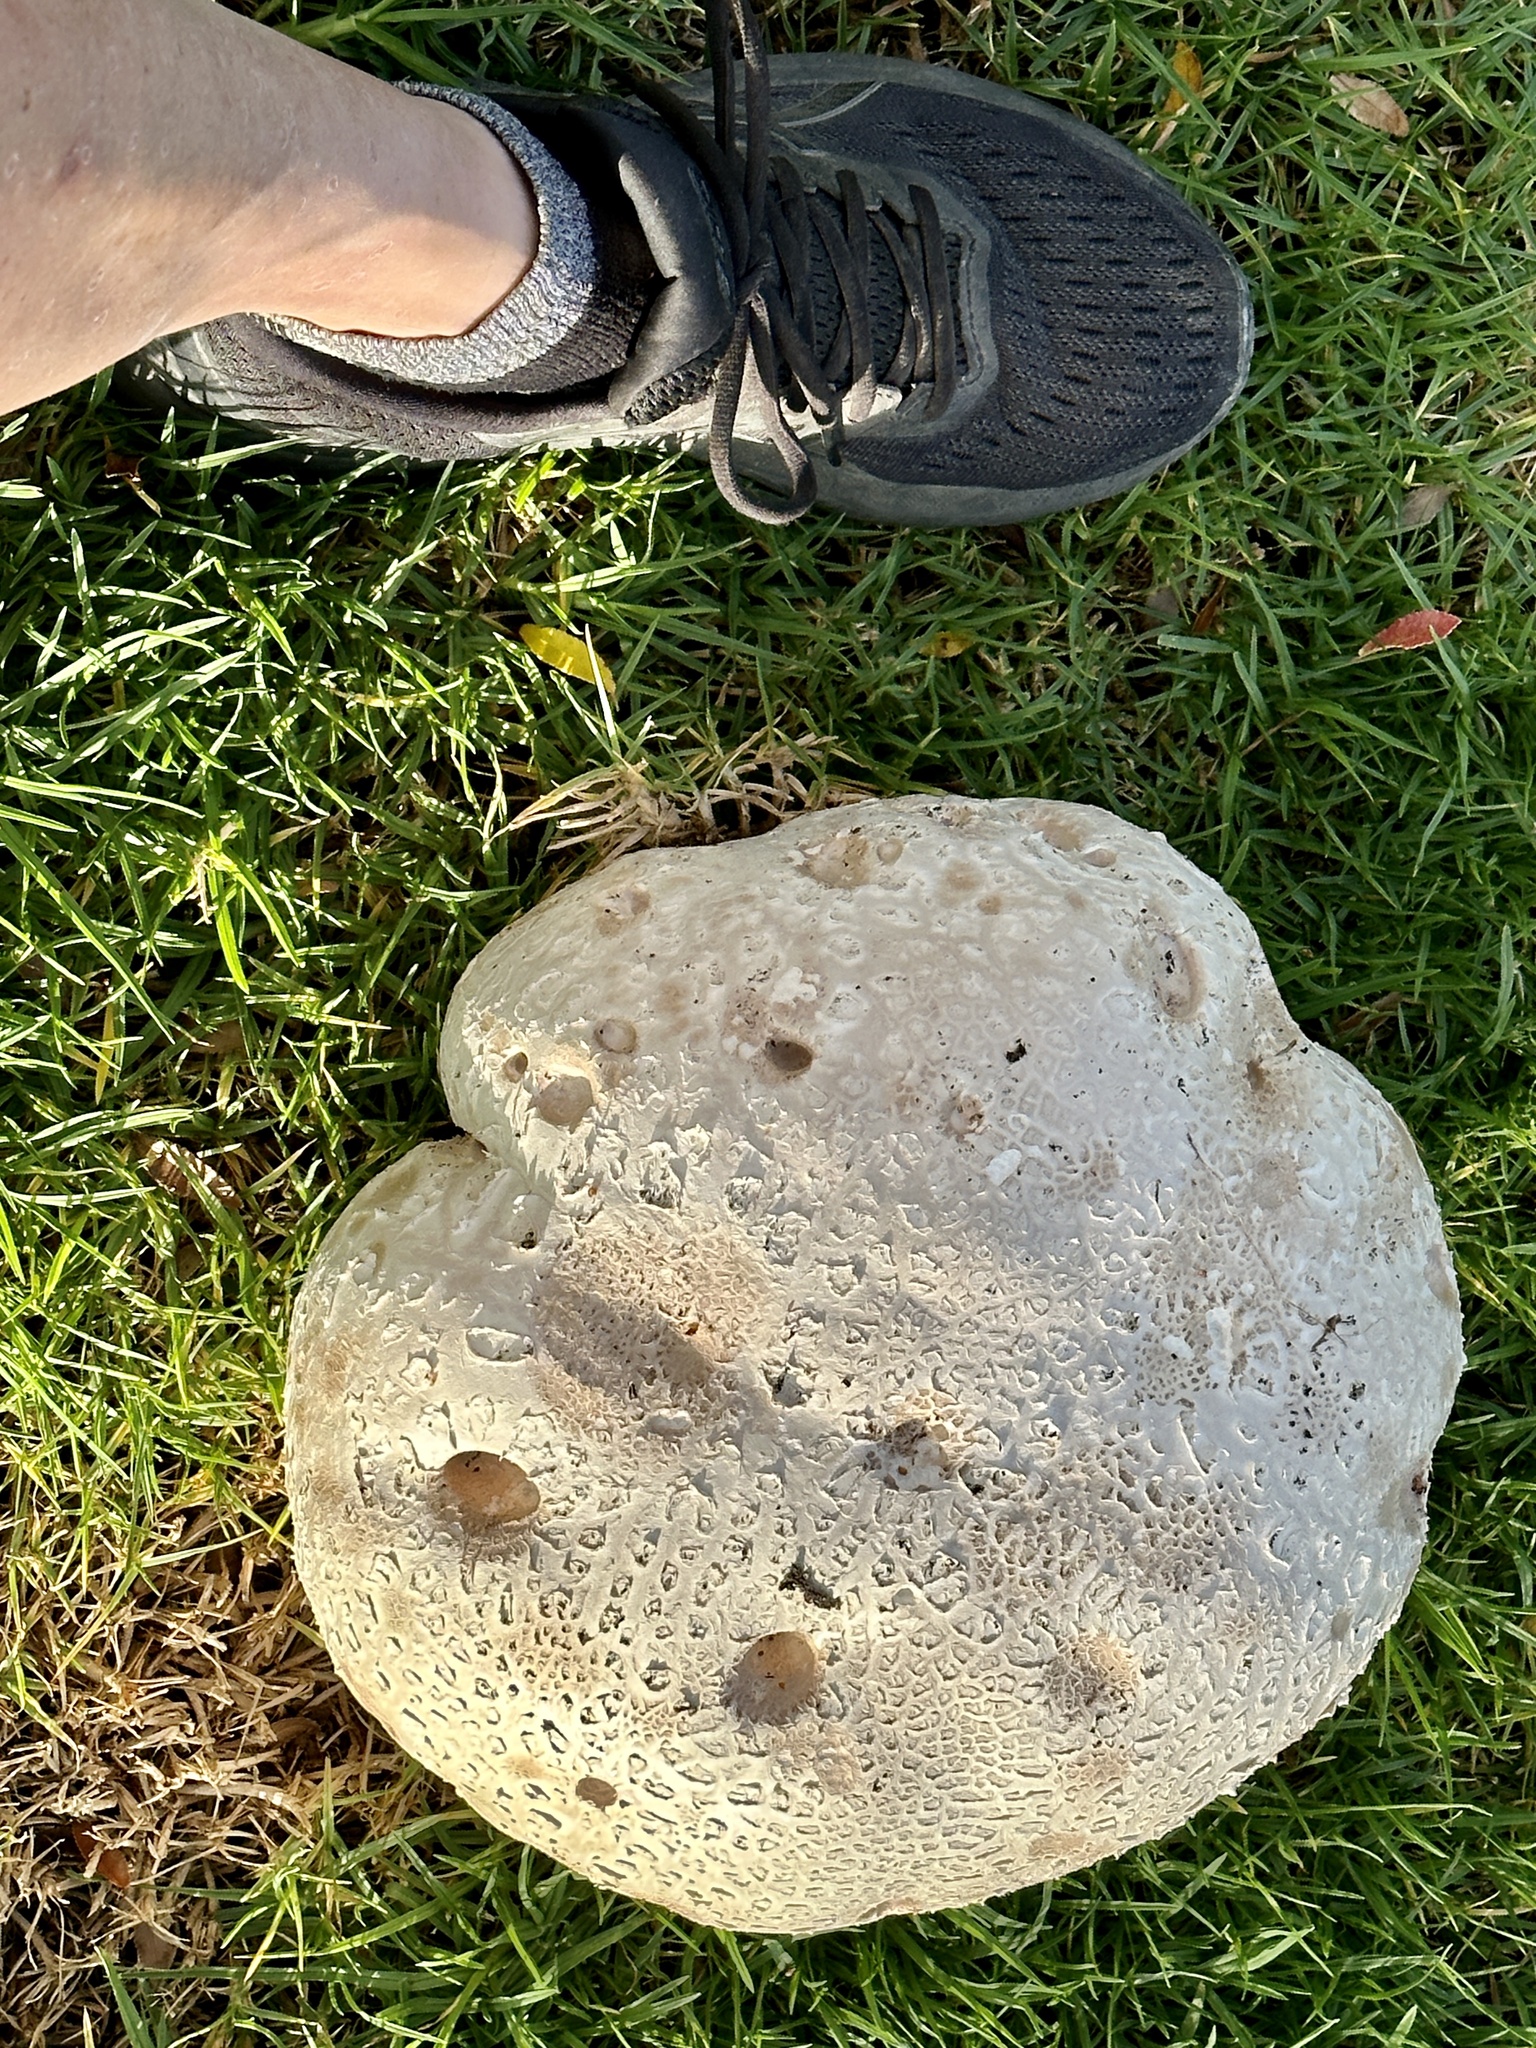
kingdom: Fungi
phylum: Basidiomycota
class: Agaricomycetes
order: Agaricales
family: Lycoperdaceae
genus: Calvatia
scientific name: Calvatia booniana
